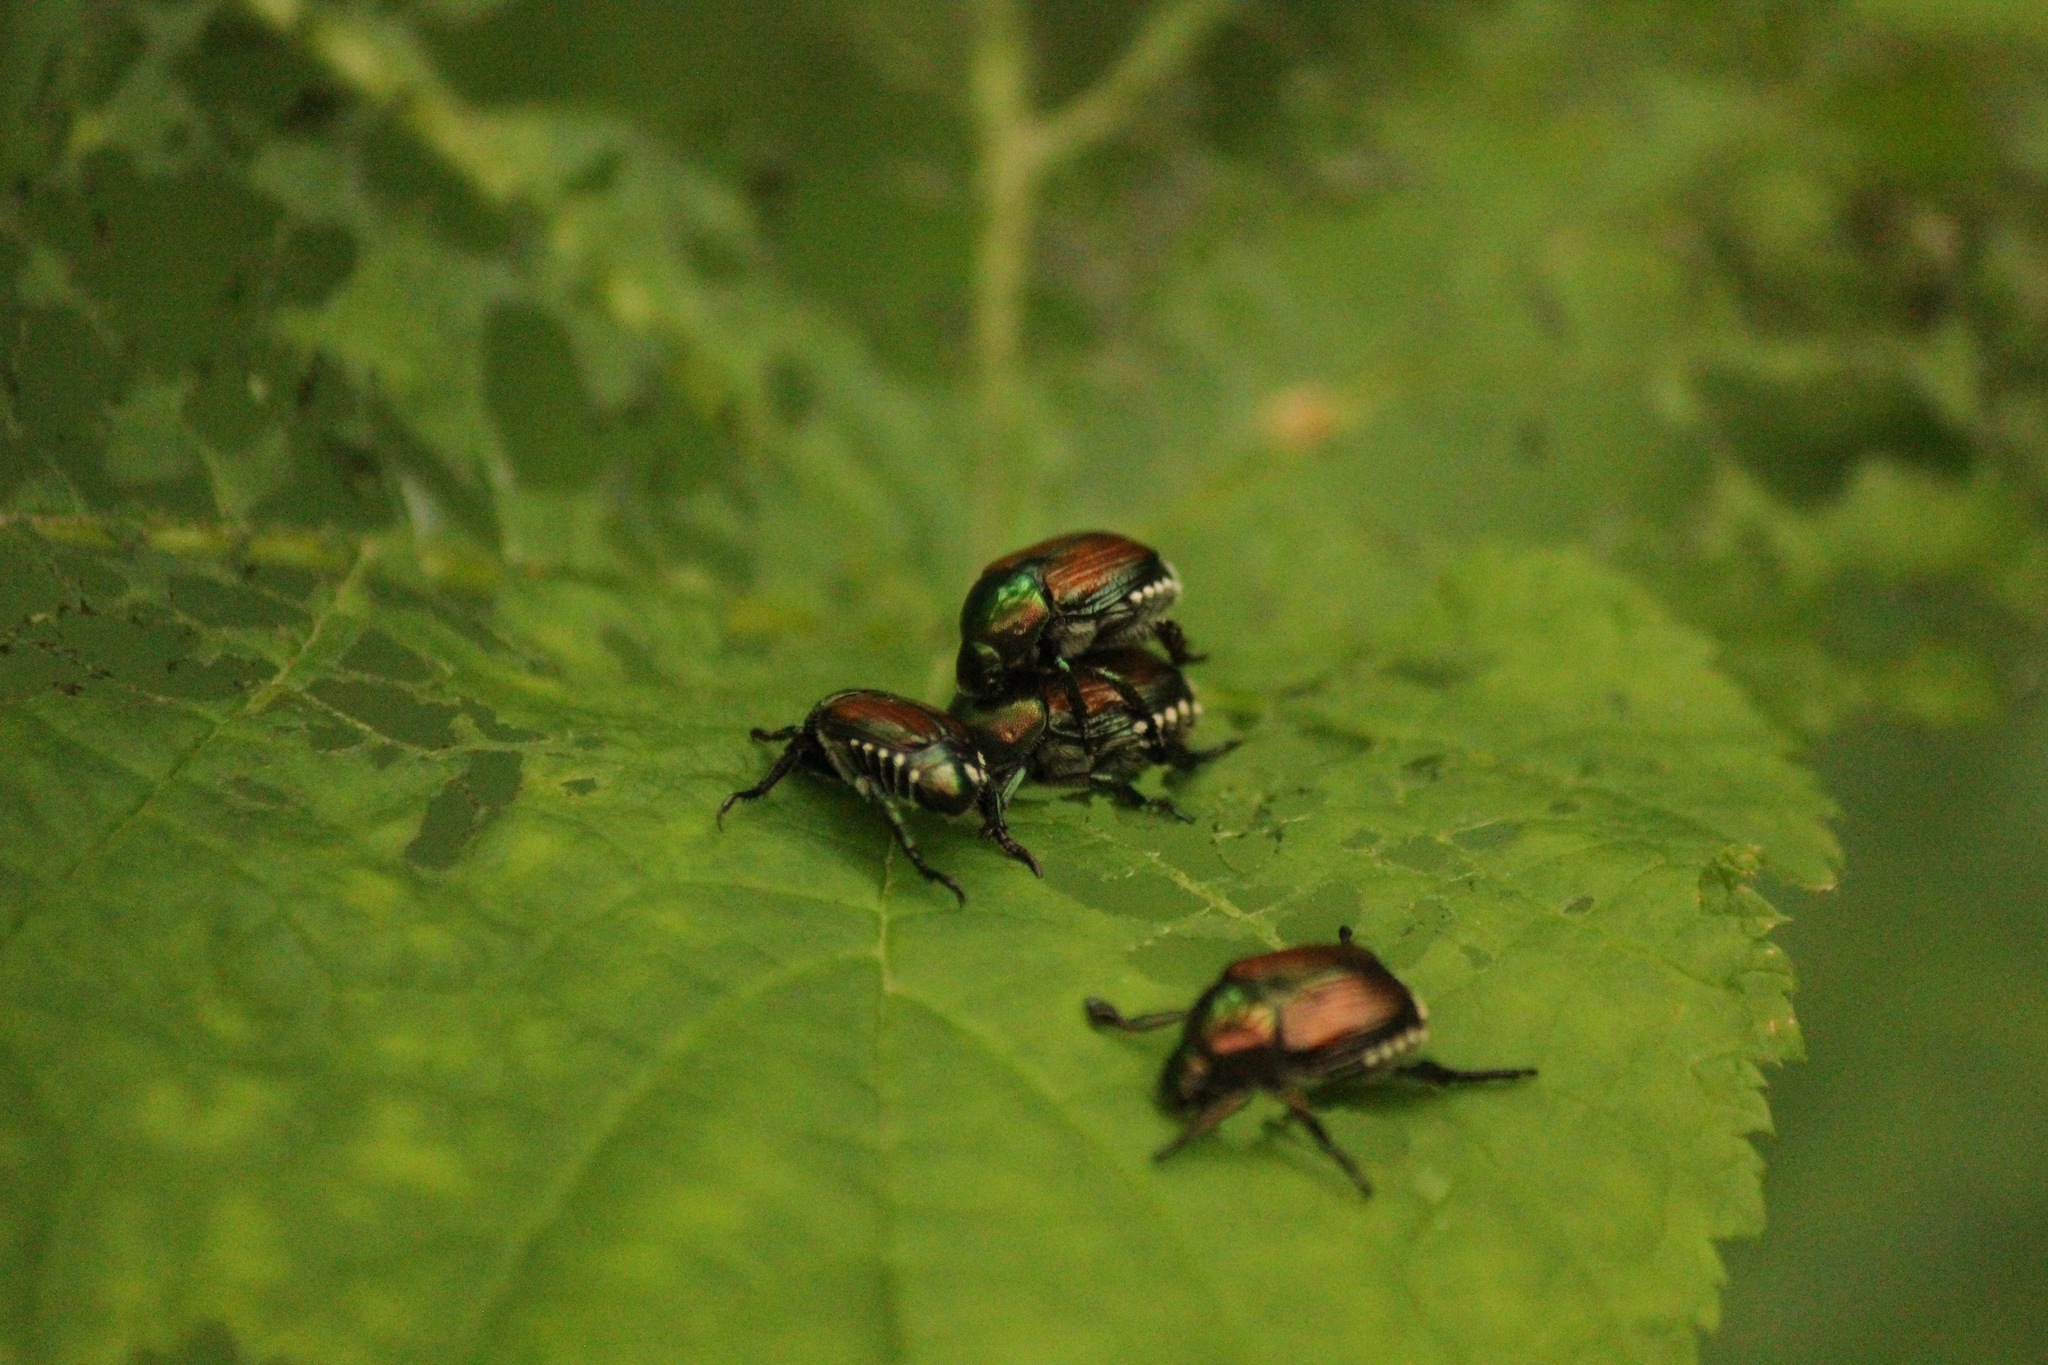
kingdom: Animalia
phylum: Arthropoda
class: Insecta
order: Coleoptera
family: Scarabaeidae
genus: Popillia
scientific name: Popillia japonica
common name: Japanese beetle
